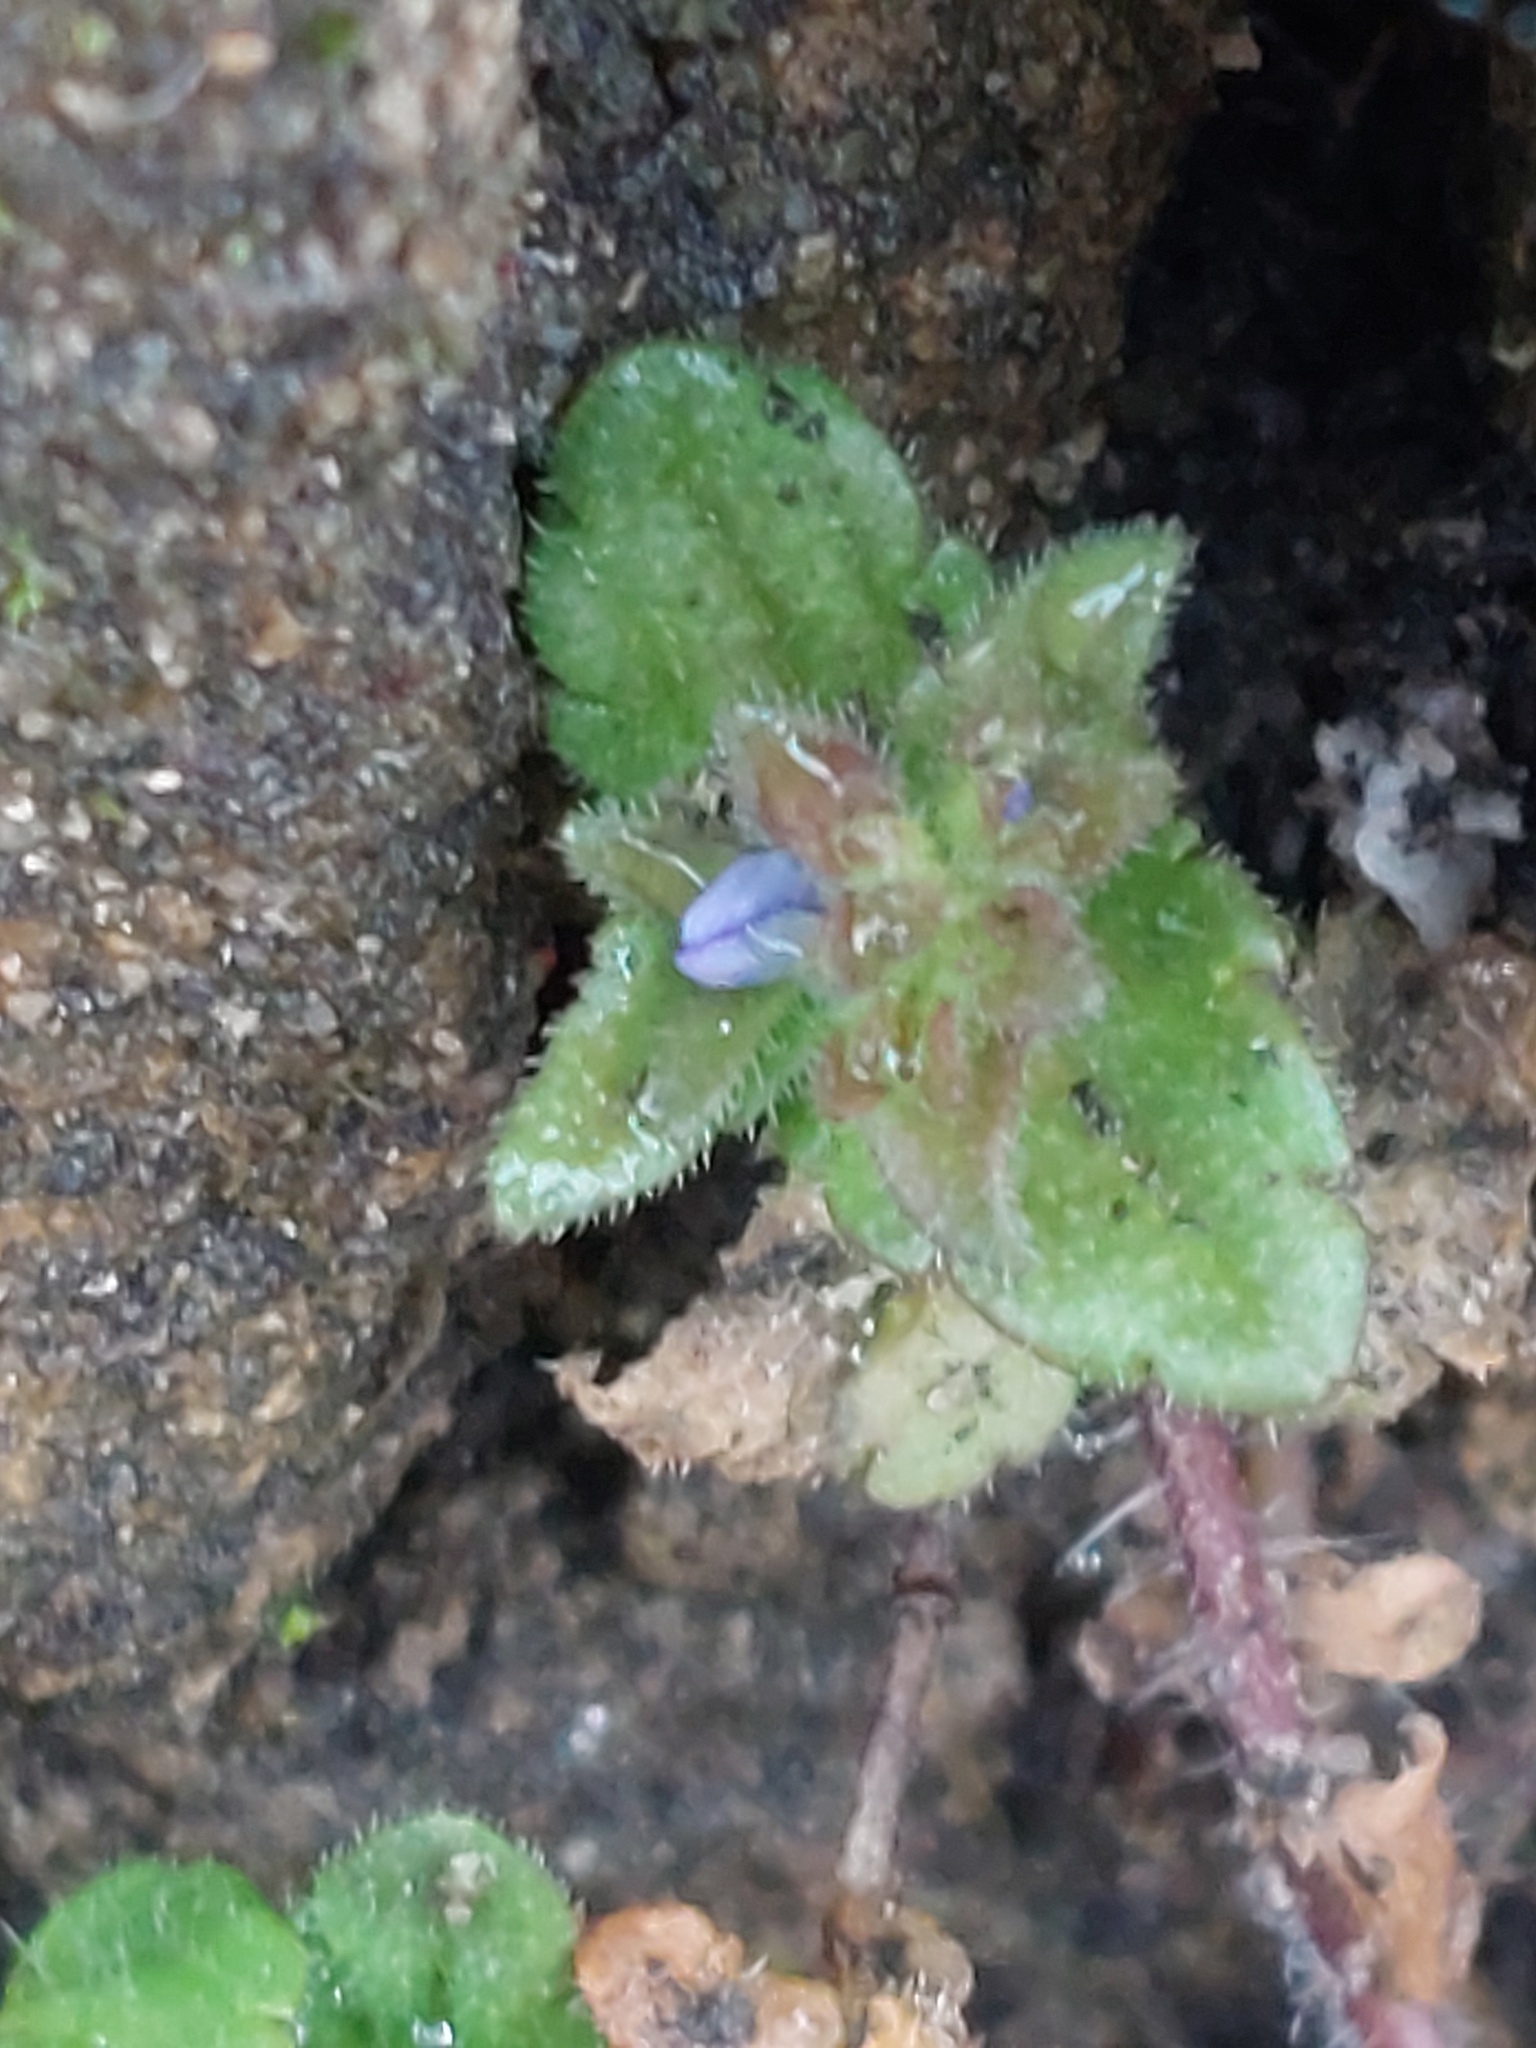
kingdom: Plantae
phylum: Tracheophyta
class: Magnoliopsida
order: Lamiales
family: Plantaginaceae
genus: Veronica
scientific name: Veronica arvensis
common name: Corn speedwell
